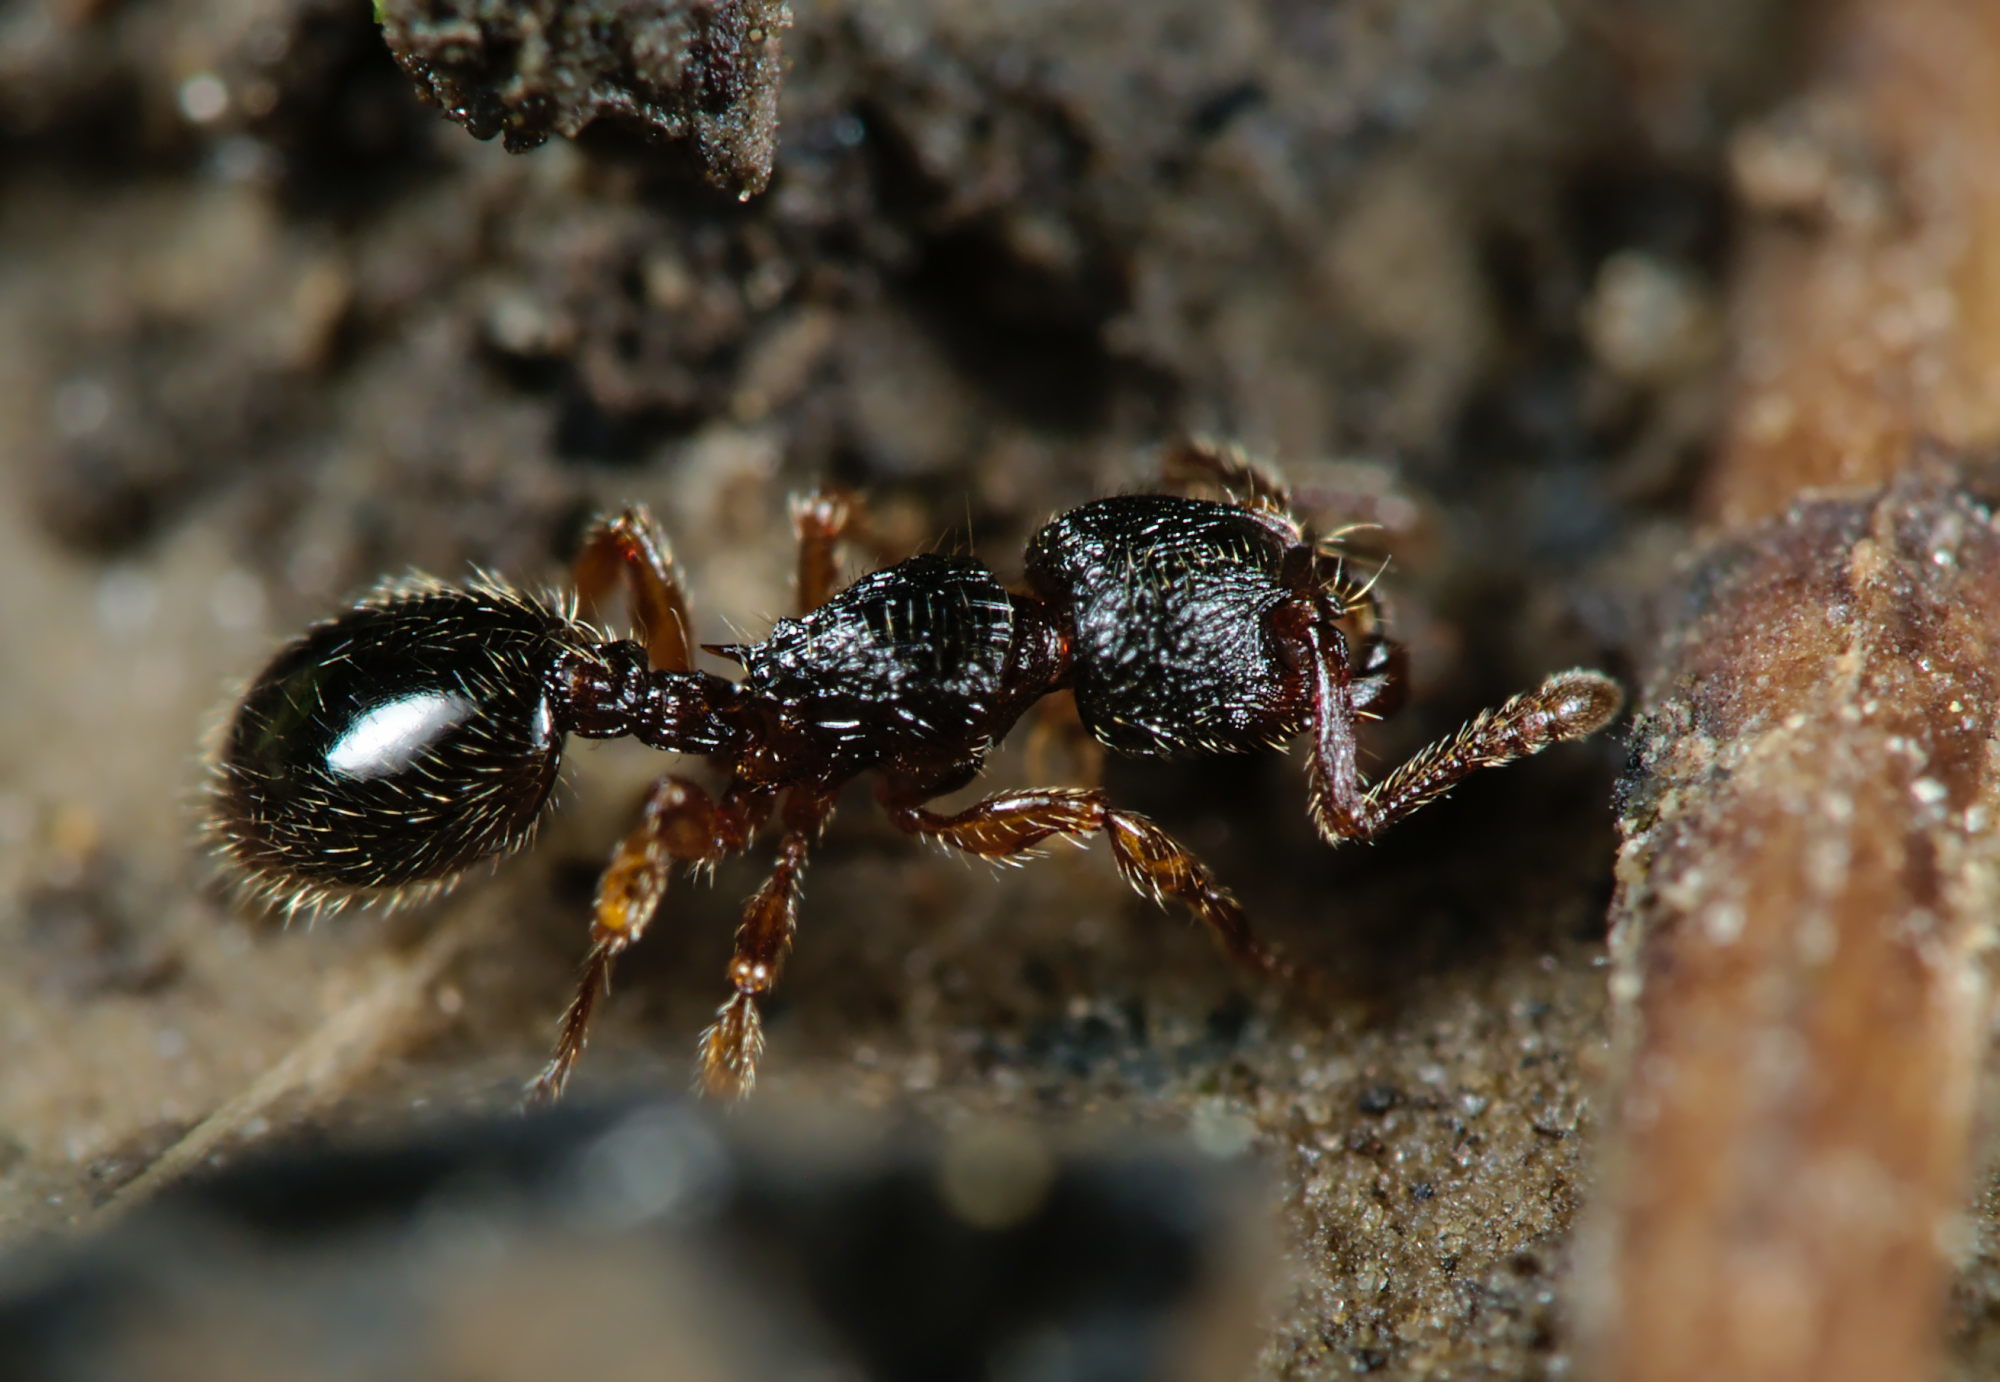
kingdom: Animalia
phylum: Arthropoda
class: Insecta
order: Hymenoptera
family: Formicidae
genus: Myrmecina
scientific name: Myrmecina graminicola
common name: Grass ant
